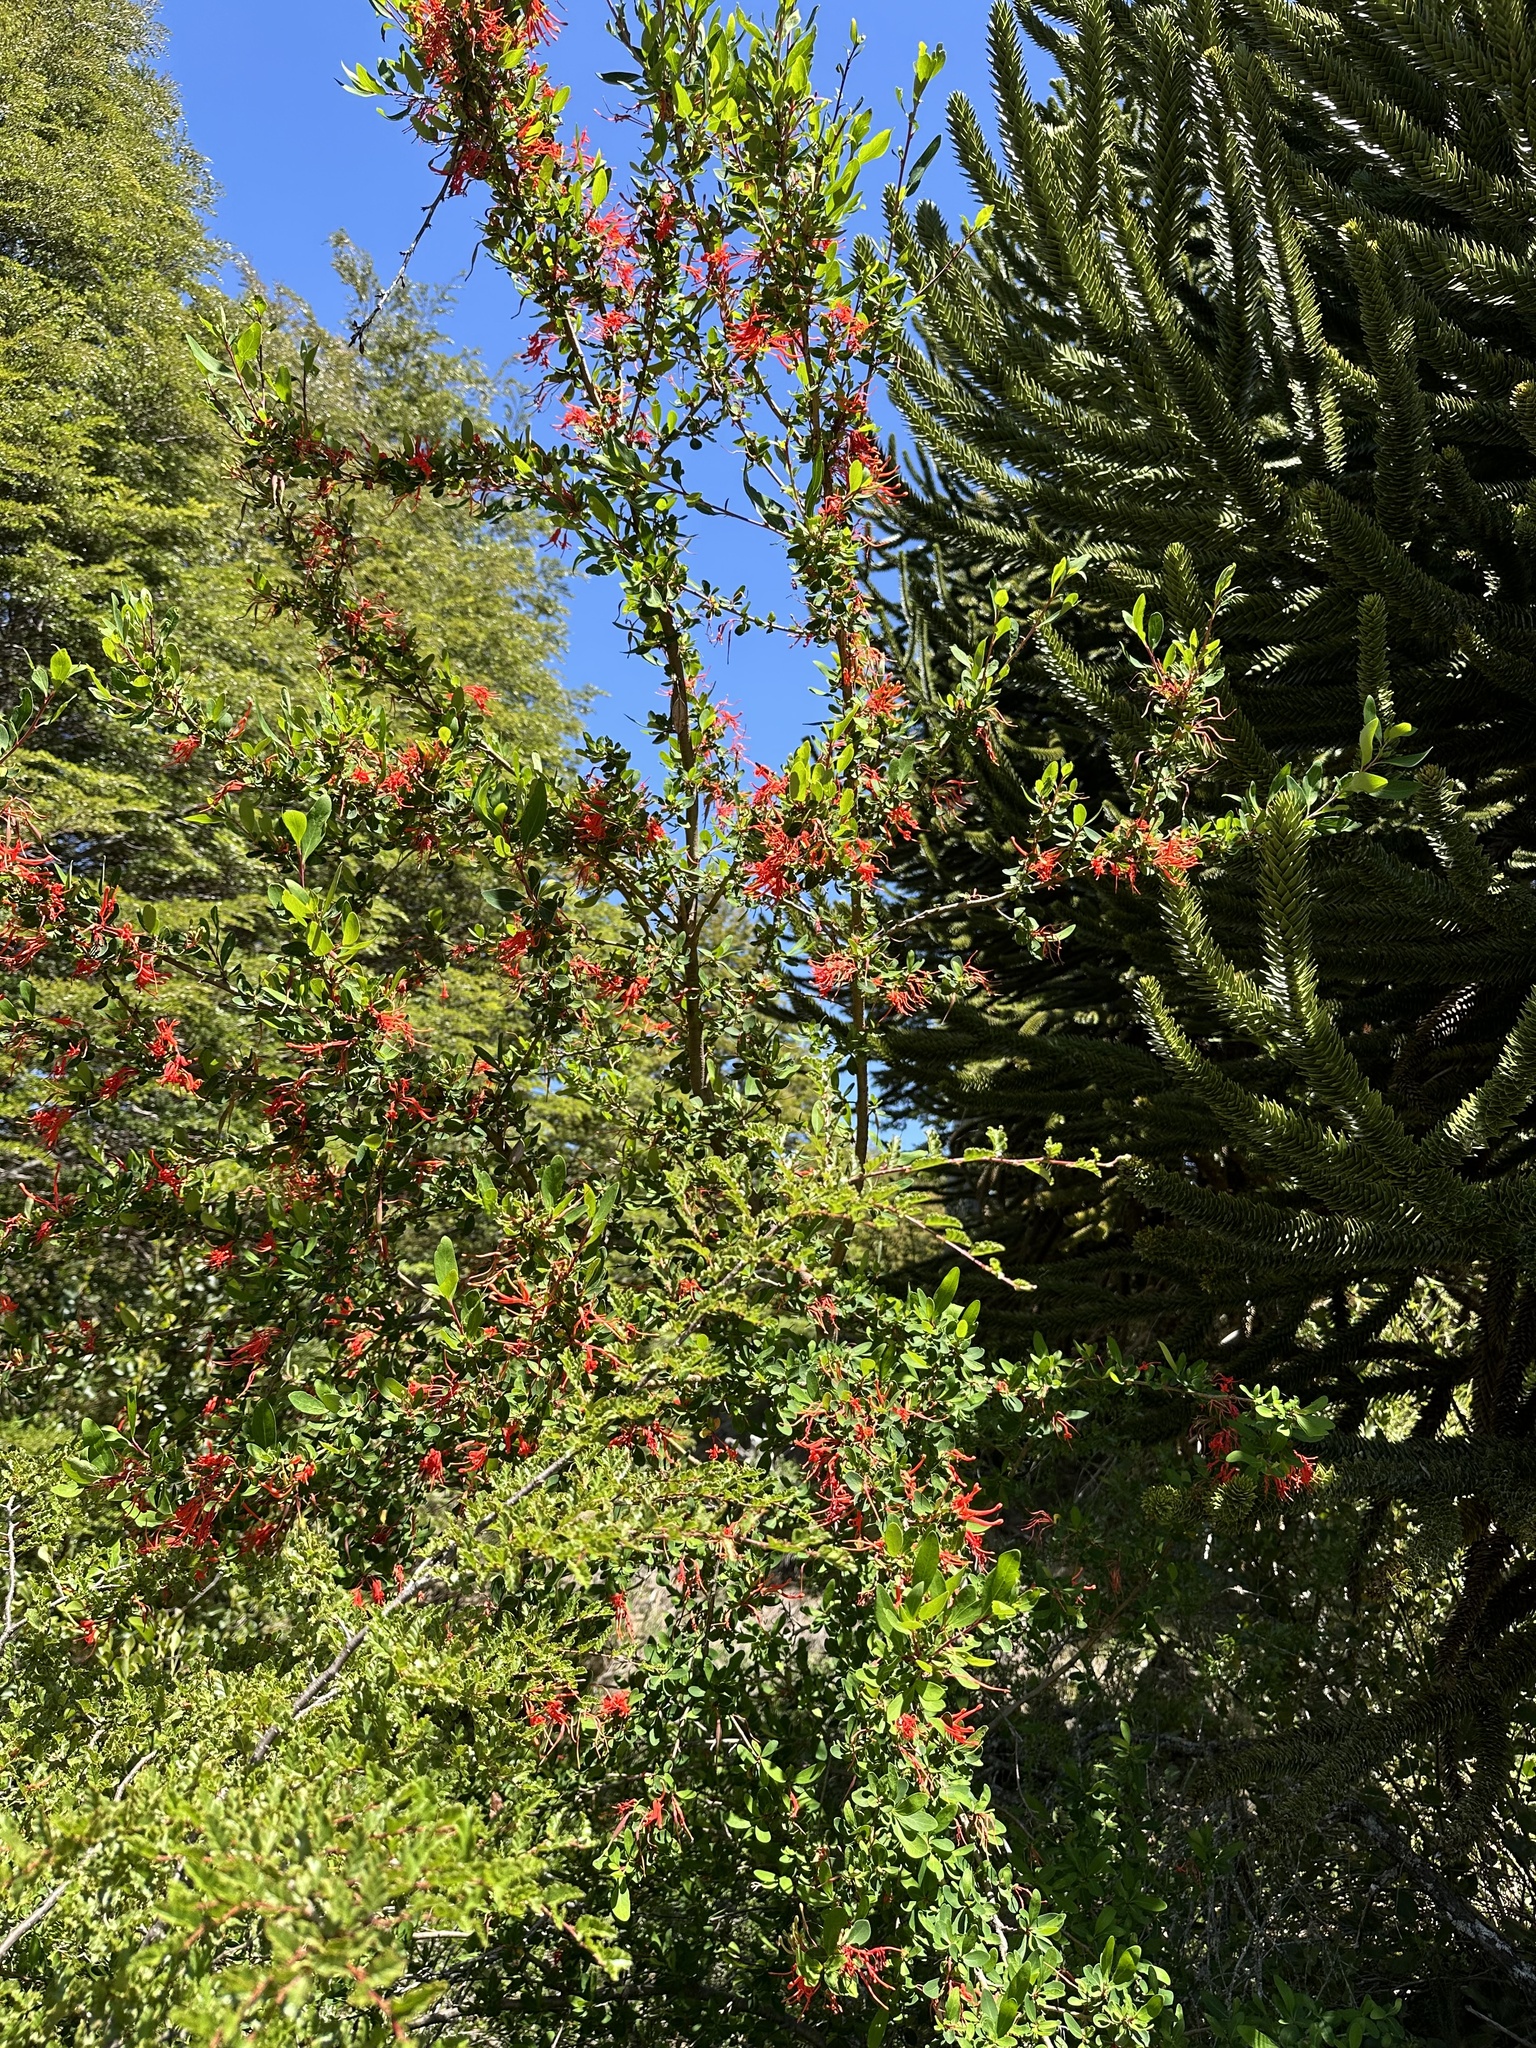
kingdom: Plantae
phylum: Tracheophyta
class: Magnoliopsida
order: Proteales
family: Proteaceae
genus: Embothrium
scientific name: Embothrium coccineum
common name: Chilean firebush
